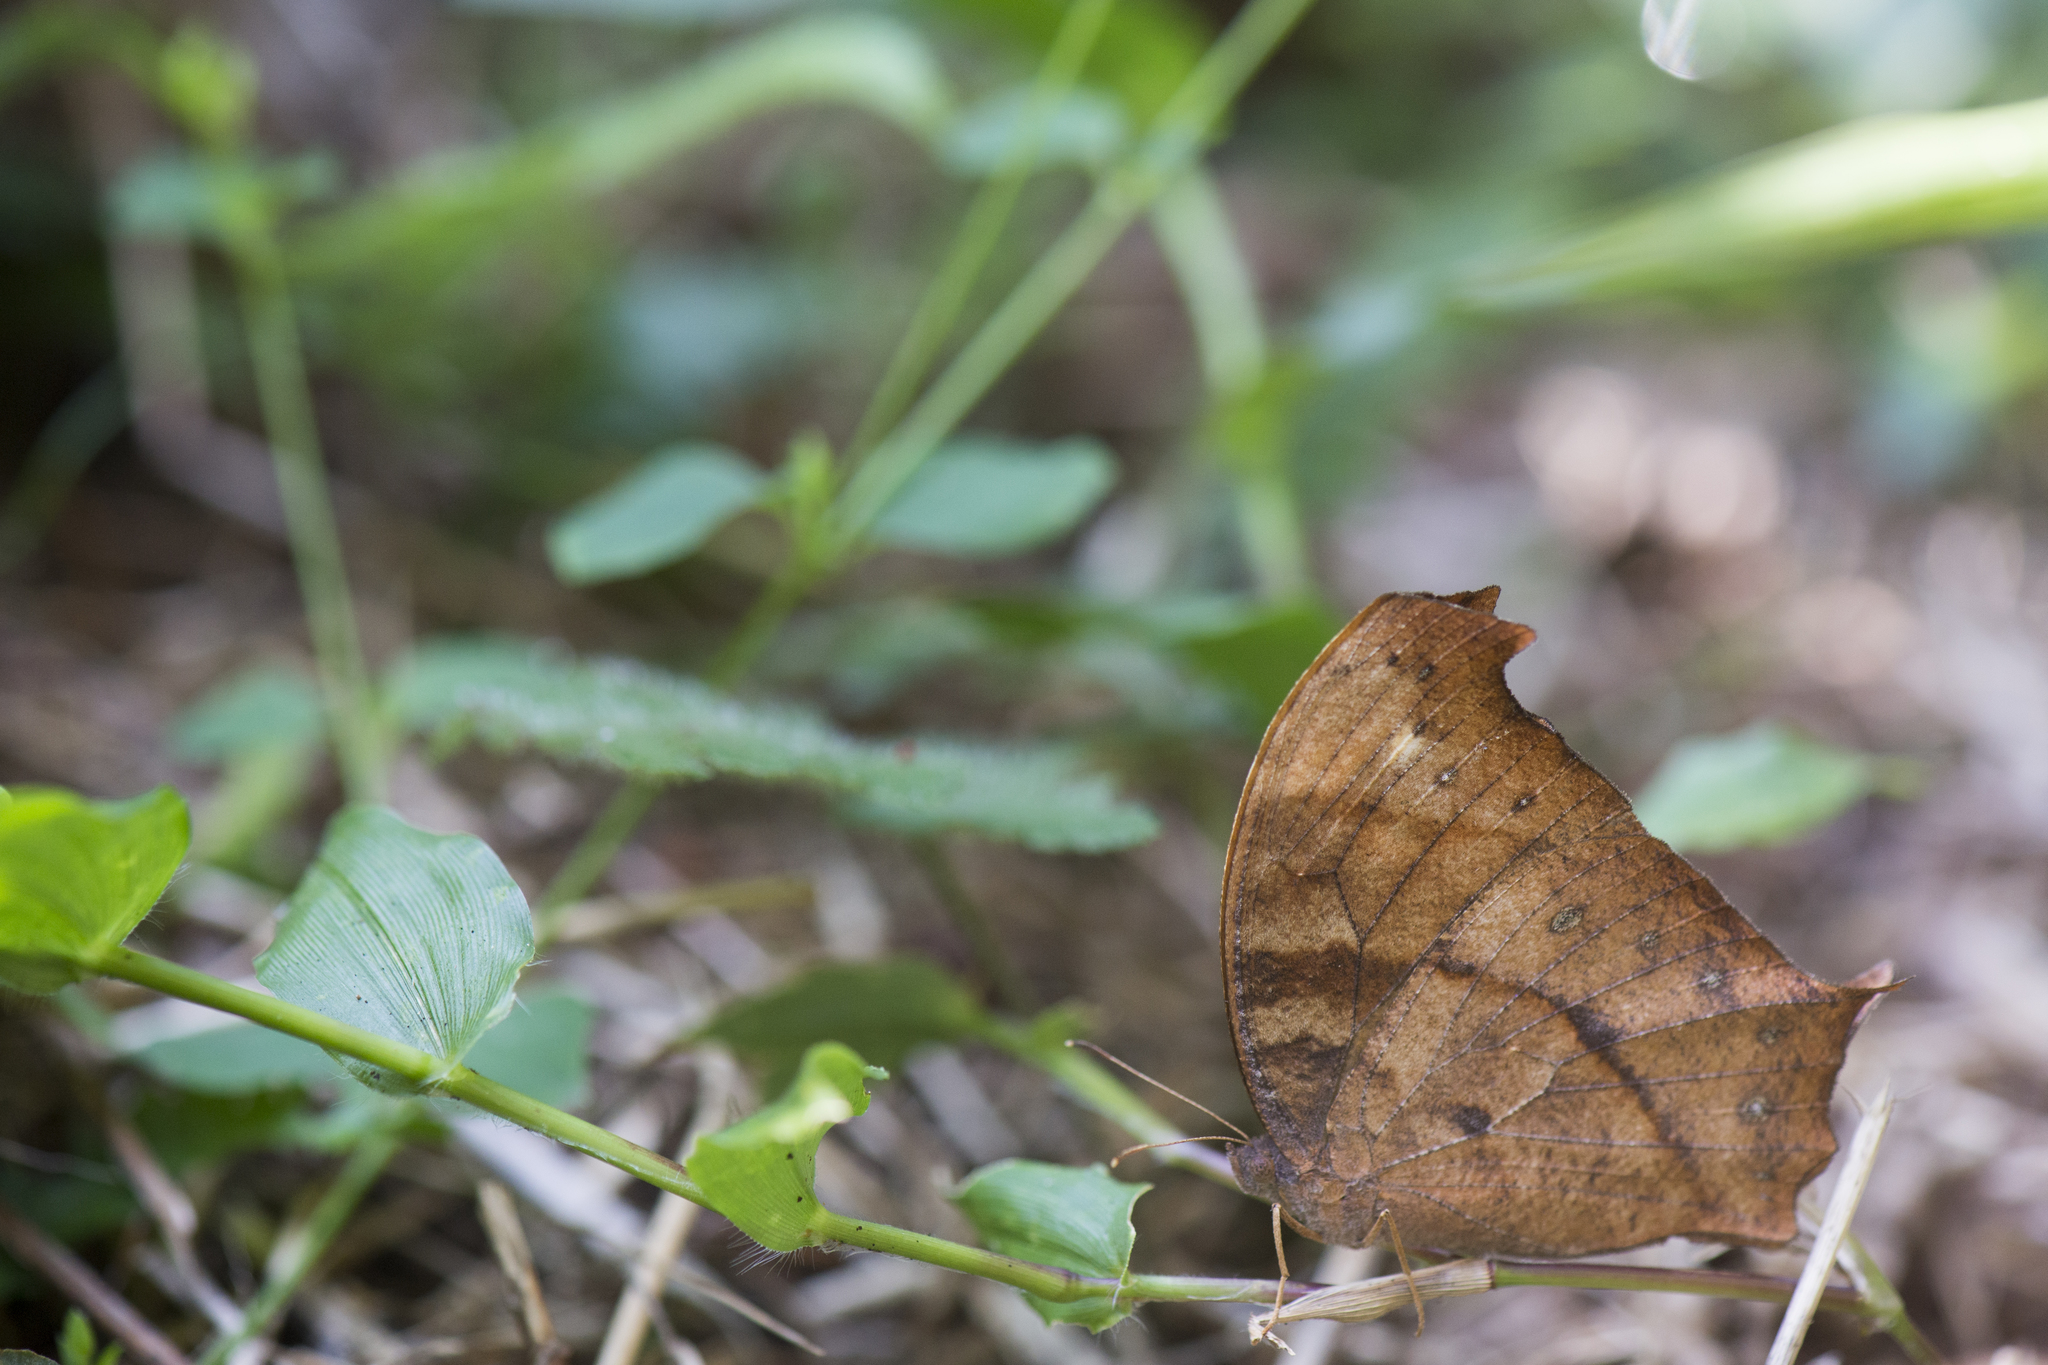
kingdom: Animalia
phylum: Arthropoda
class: Insecta
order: Lepidoptera
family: Nymphalidae
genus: Melanitis
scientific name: Melanitis phedima
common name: Dark evening brown
